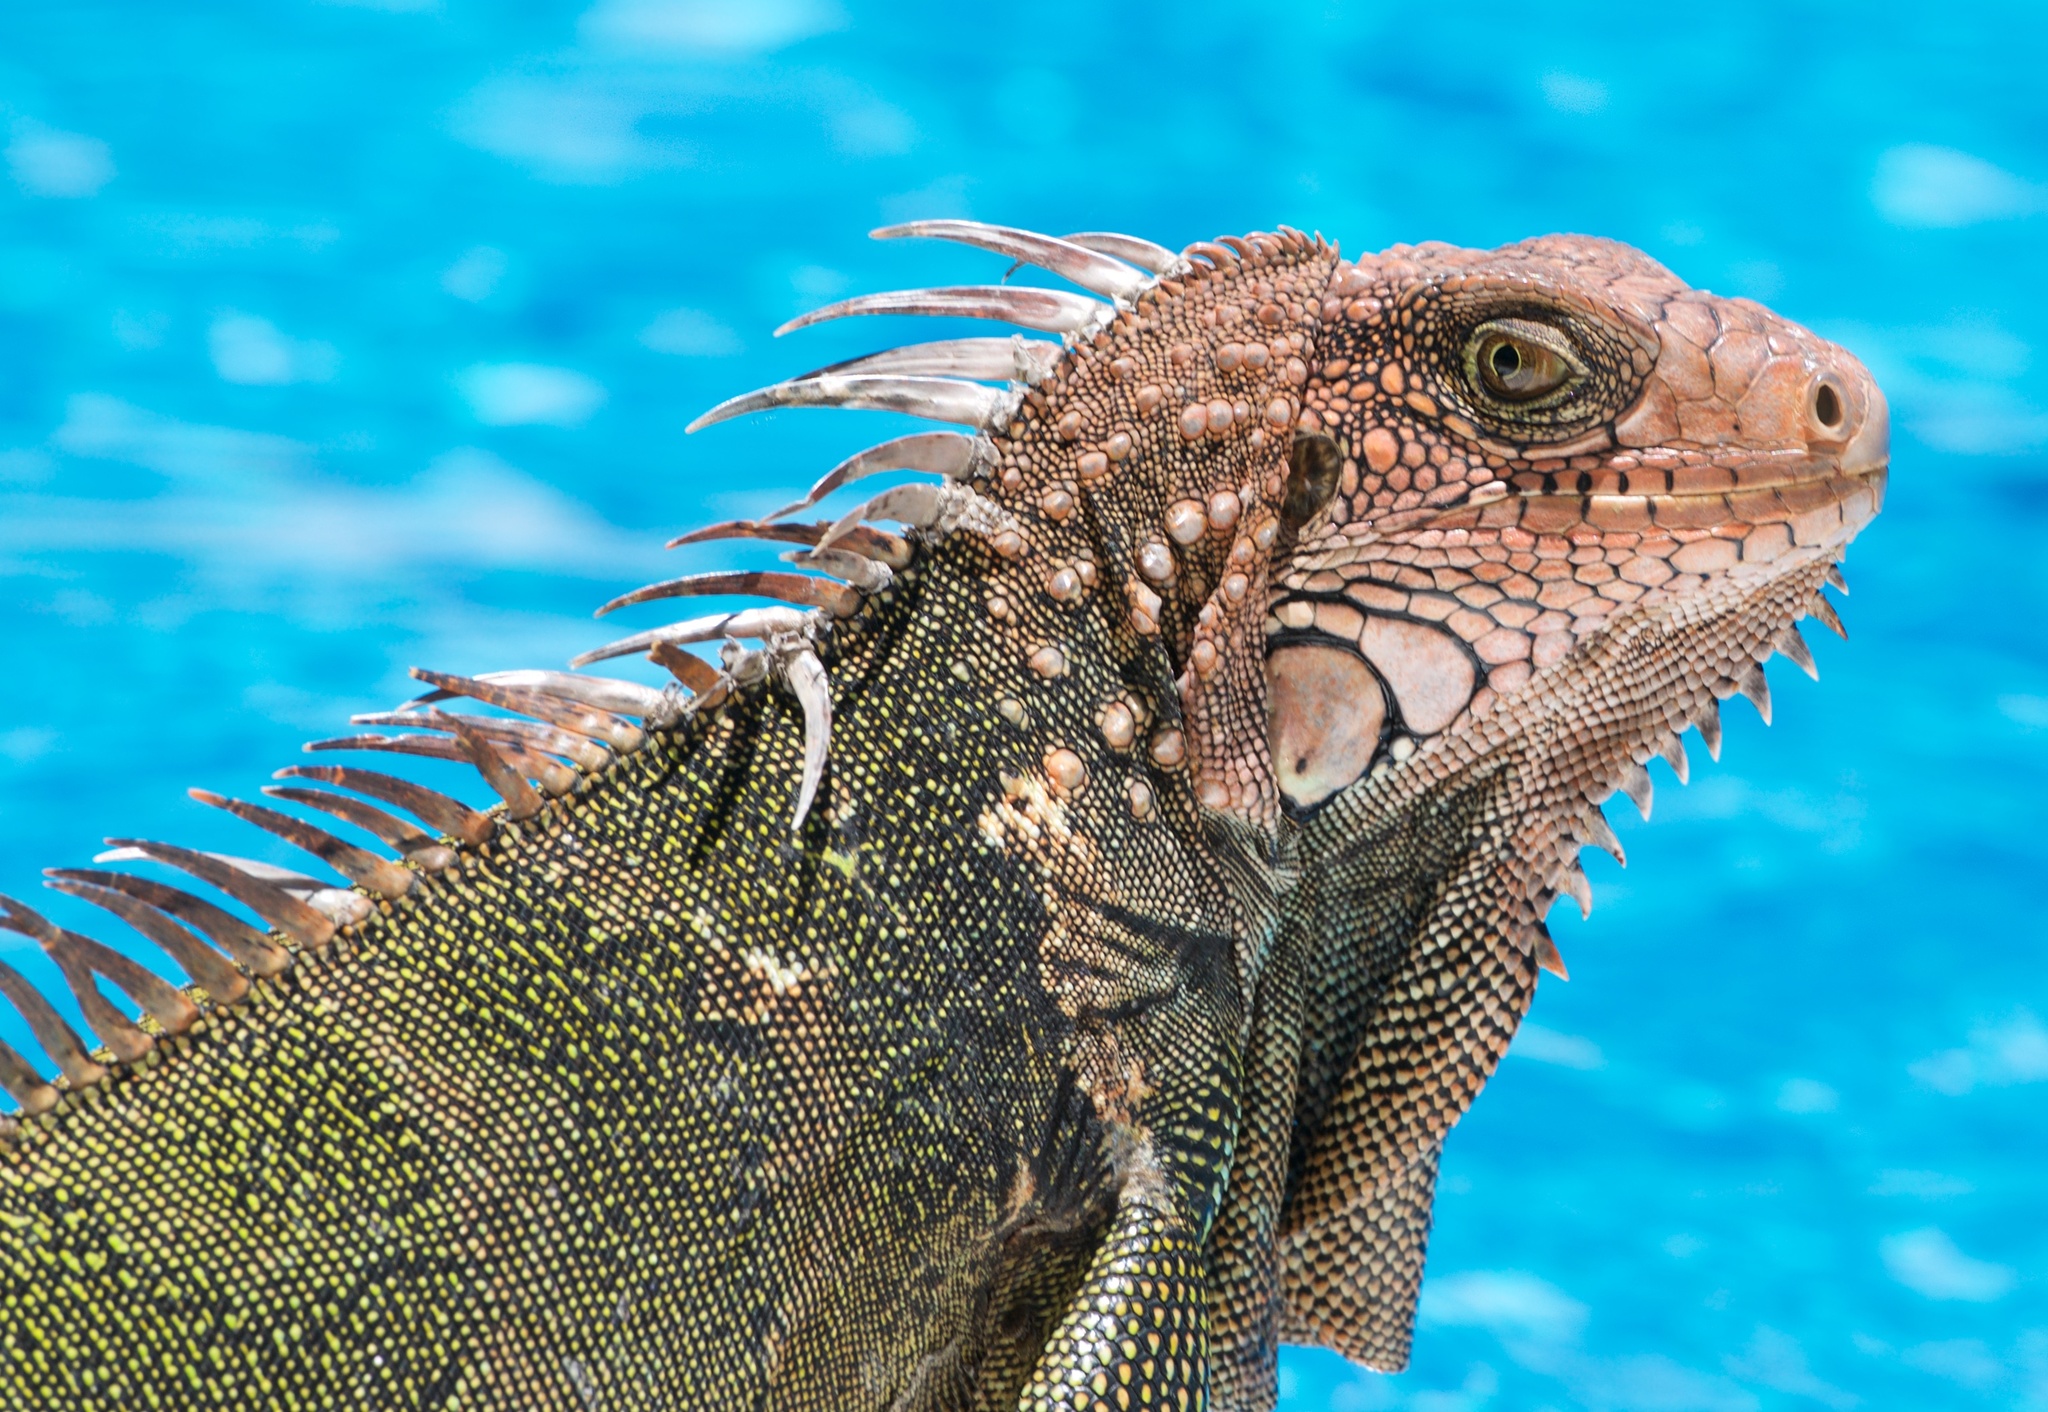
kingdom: Animalia
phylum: Chordata
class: Squamata
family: Iguanidae
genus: Iguana
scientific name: Iguana iguana
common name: Green iguana
